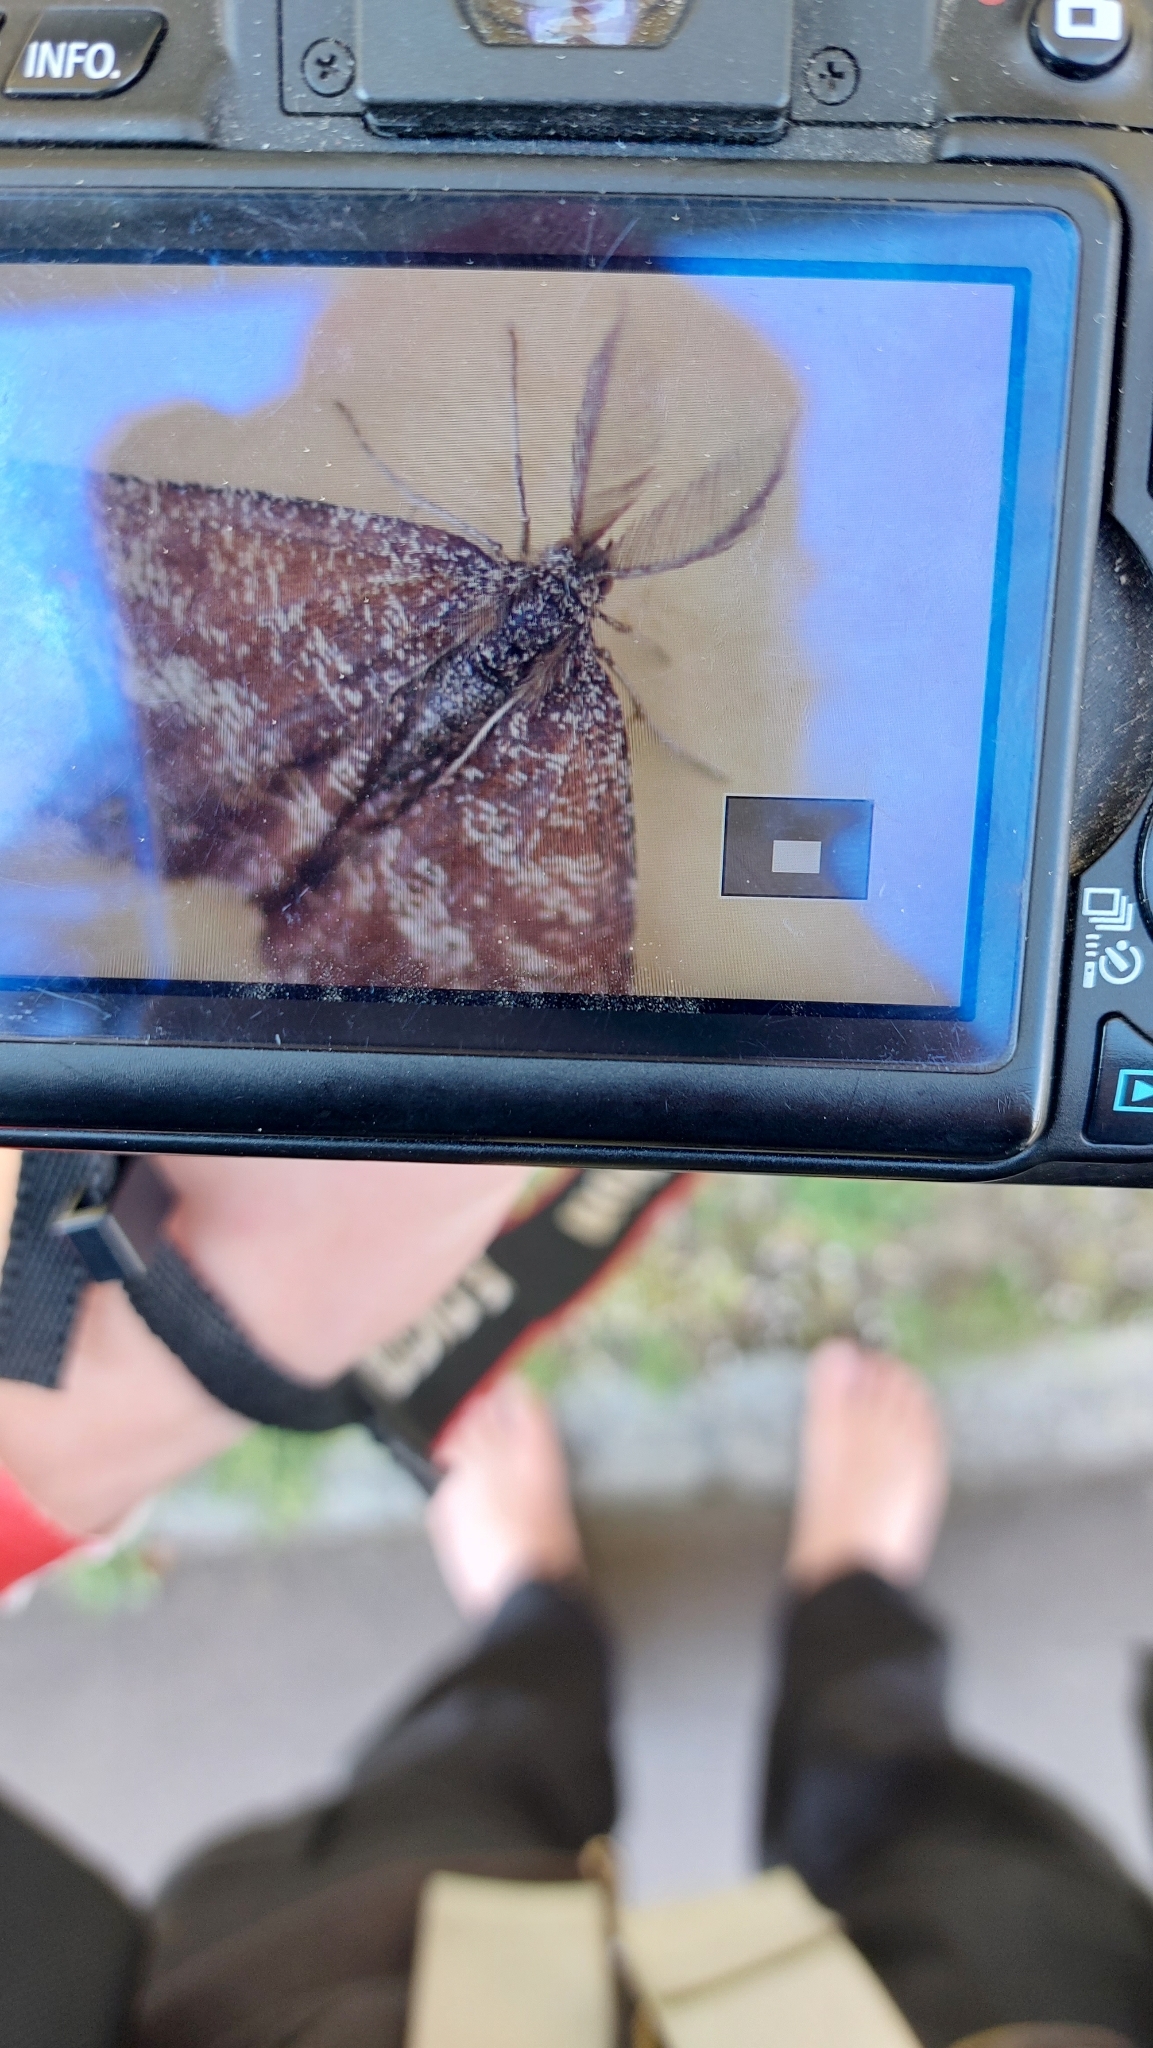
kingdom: Animalia
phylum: Arthropoda
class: Insecta
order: Lepidoptera
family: Geometridae
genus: Ematurga
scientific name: Ematurga atomaria
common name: Common heath
